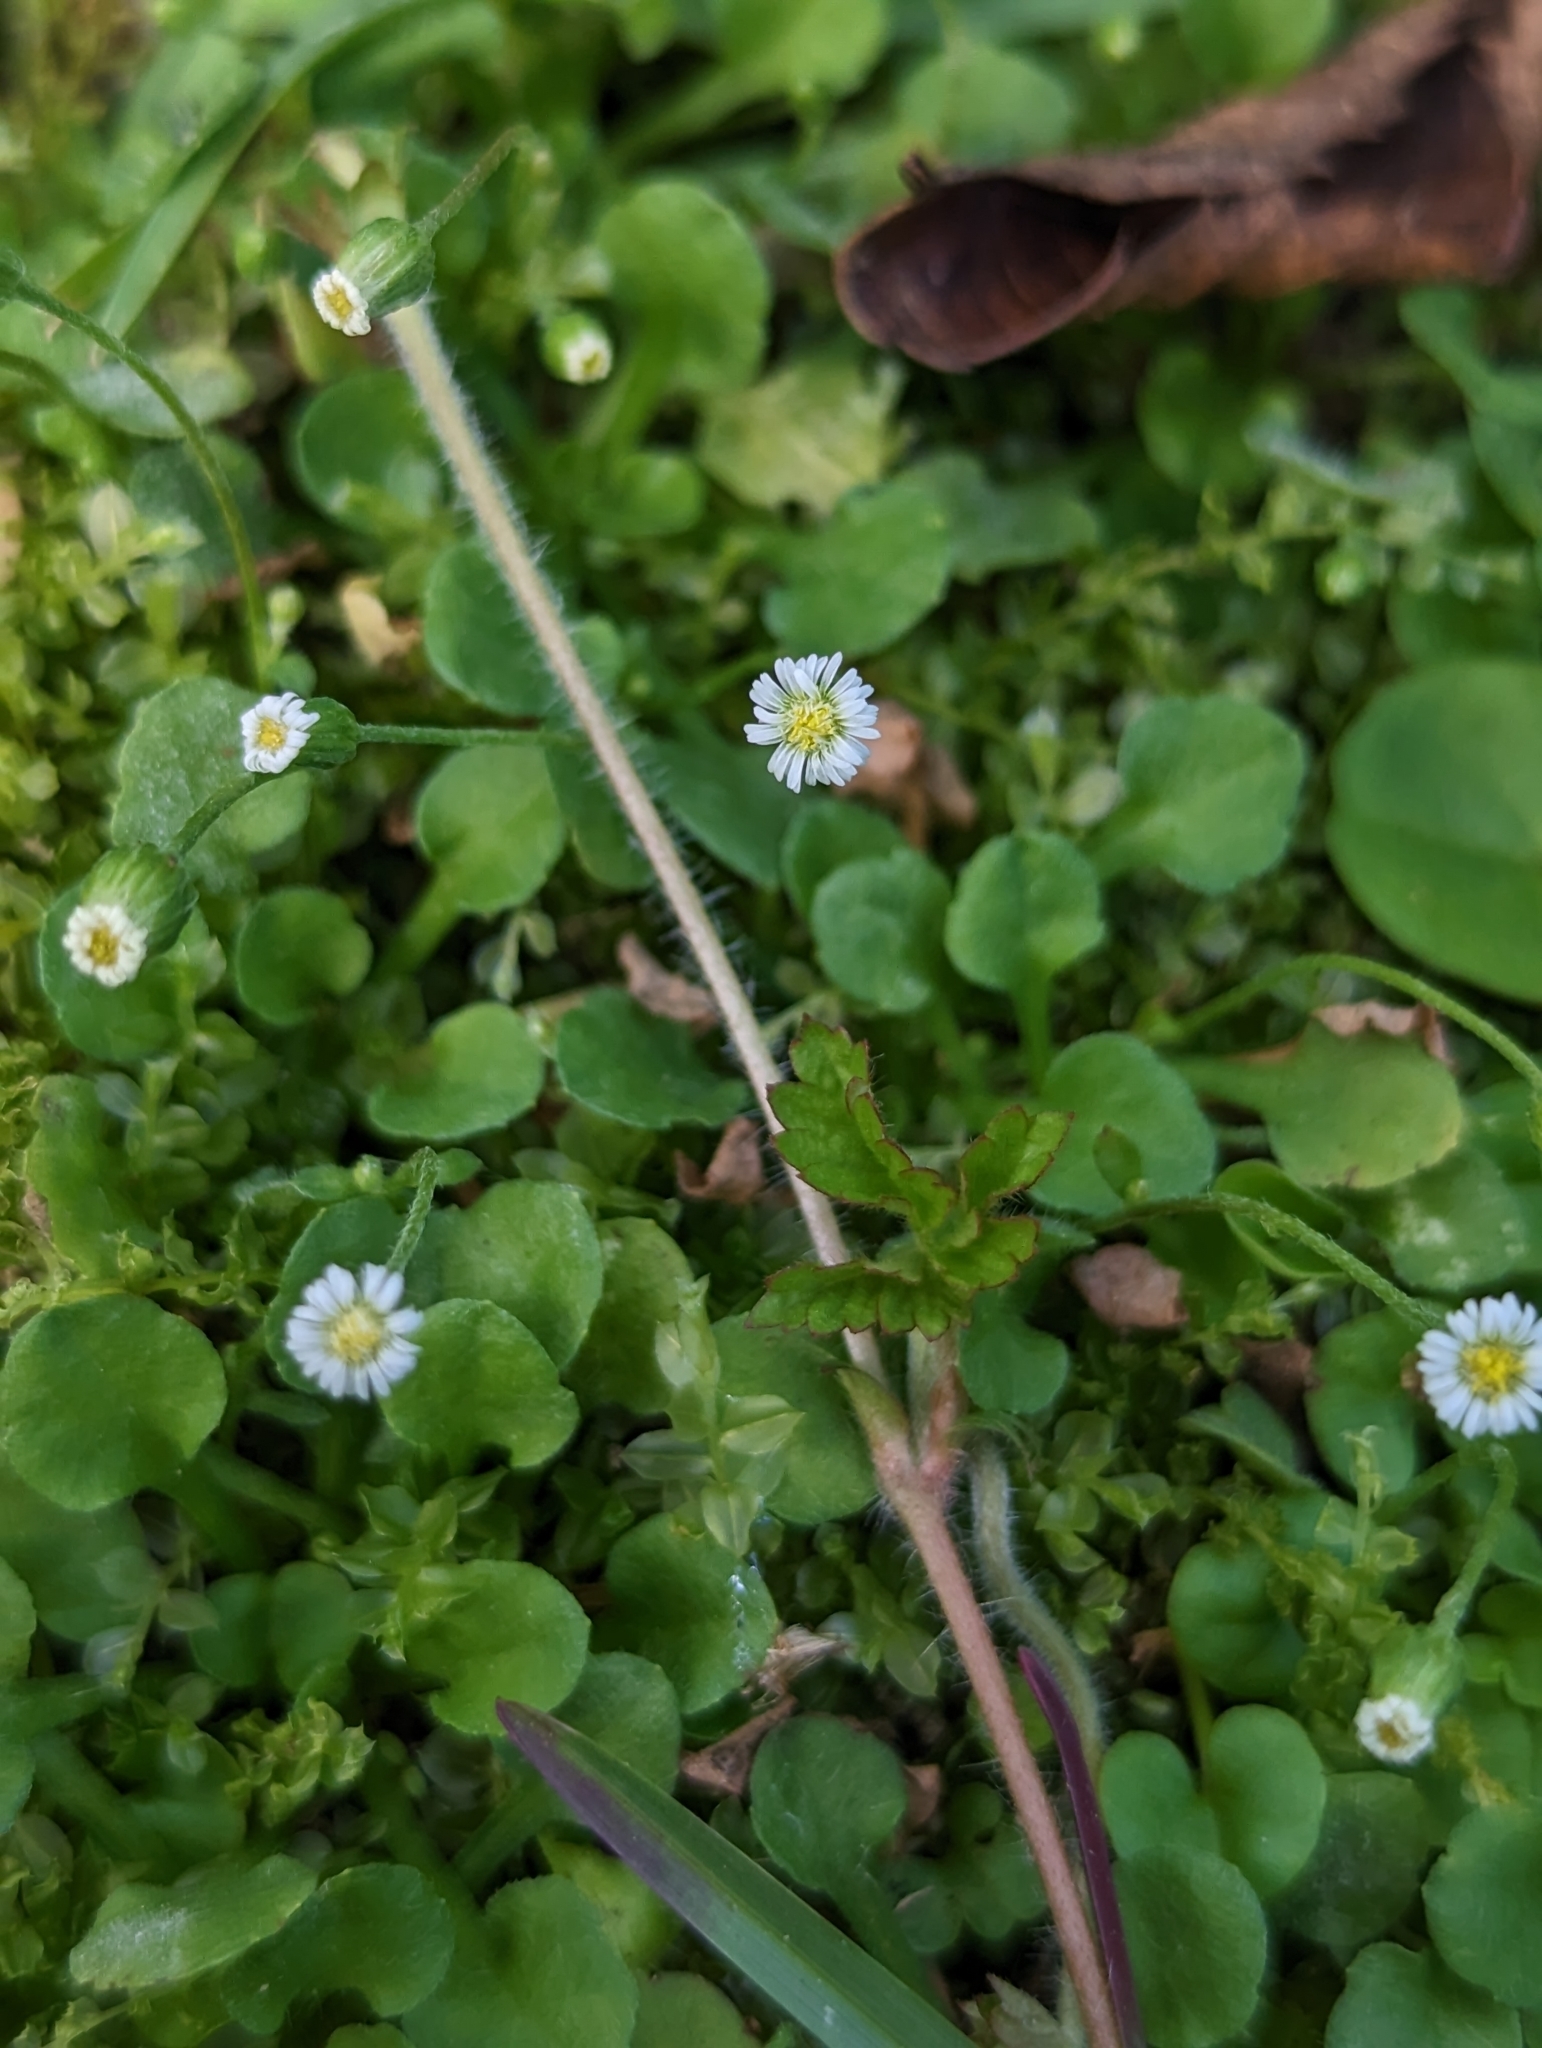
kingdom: Plantae
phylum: Tracheophyta
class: Magnoliopsida
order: Asterales
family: Asteraceae
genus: Erigeron
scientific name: Erigeron bellioides
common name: Bellorita
